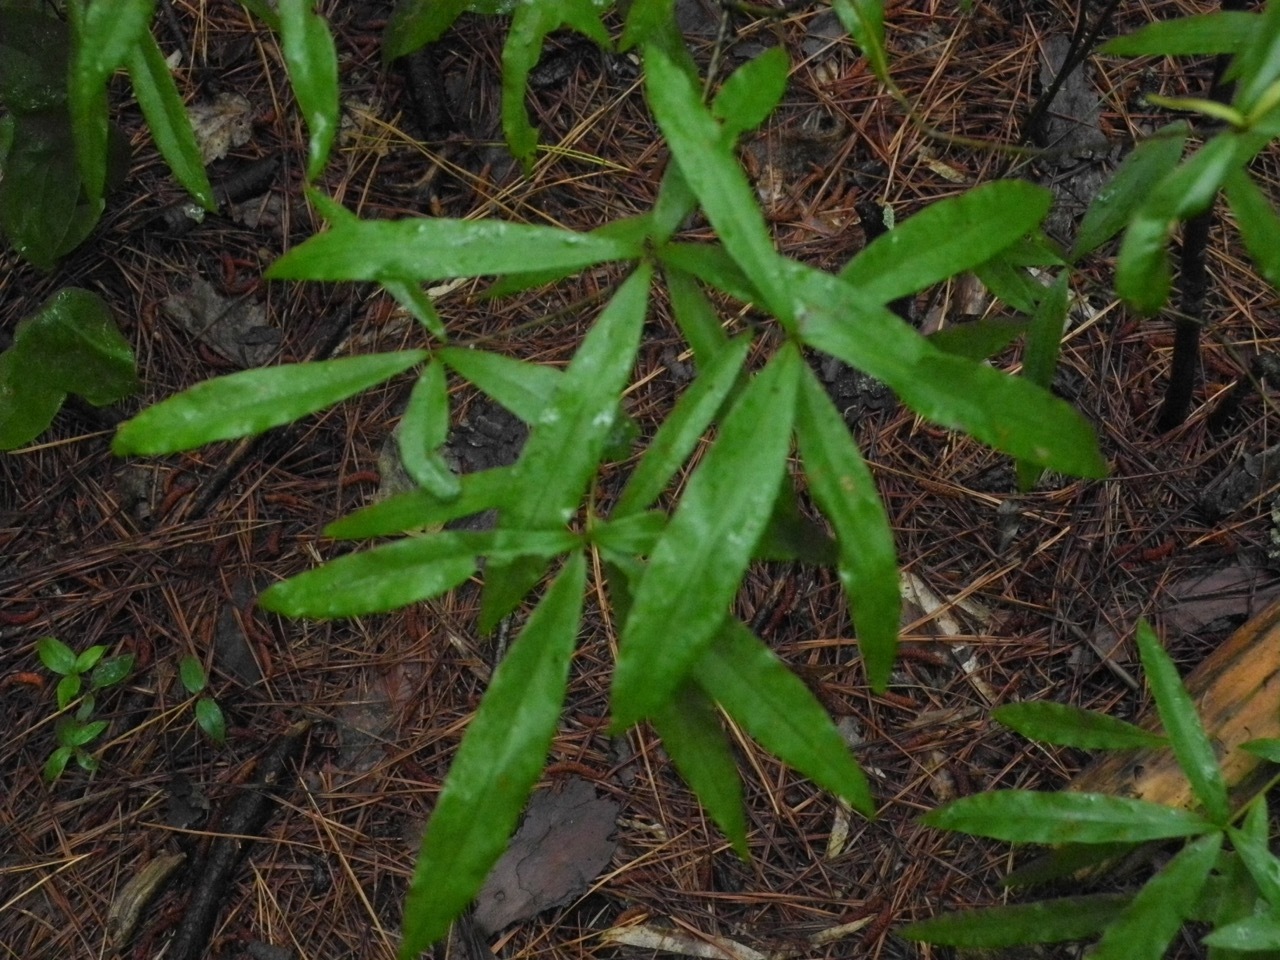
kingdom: Plantae
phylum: Tracheophyta
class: Magnoliopsida
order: Fagales
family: Fagaceae
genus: Quercus
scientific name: Quercus phellos
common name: Willow oak
